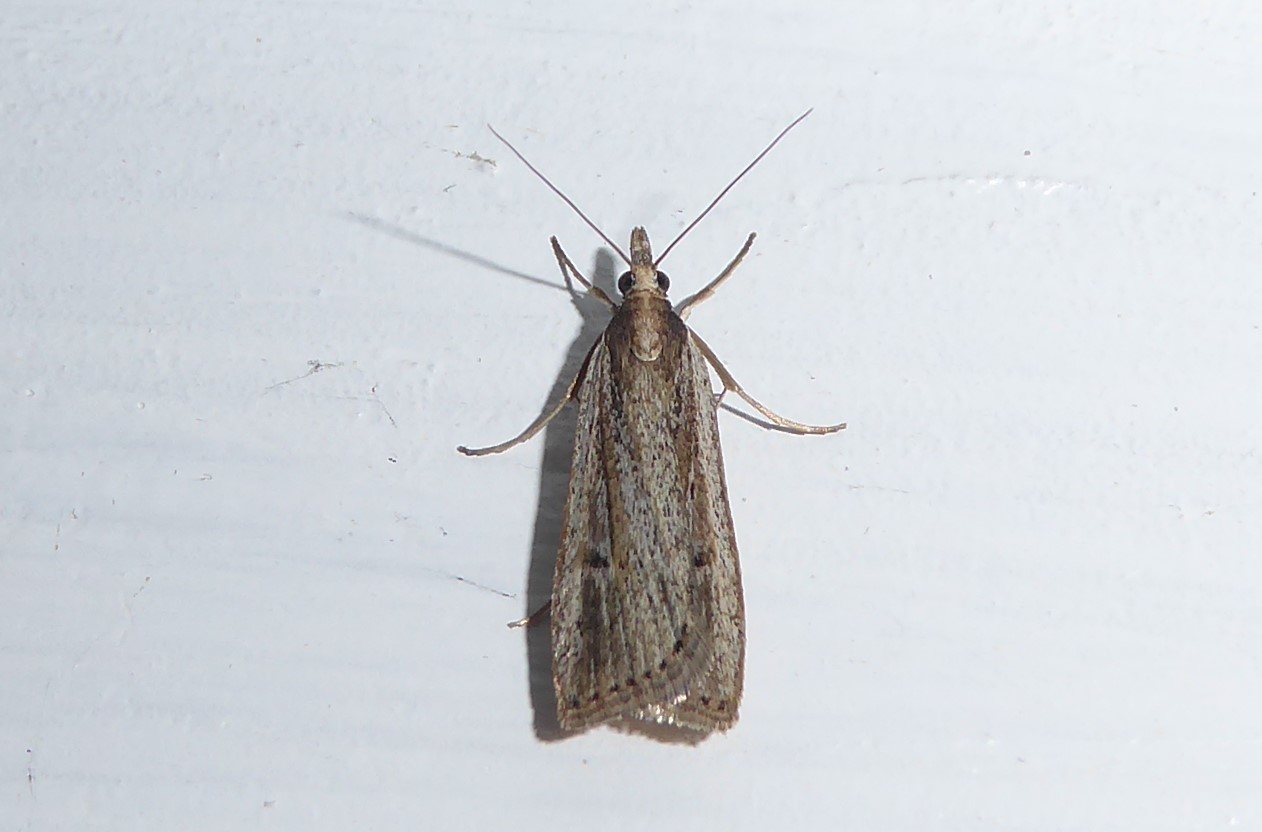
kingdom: Animalia
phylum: Arthropoda
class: Insecta
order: Lepidoptera
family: Crambidae
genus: Eudonia
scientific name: Eudonia sabulosella
